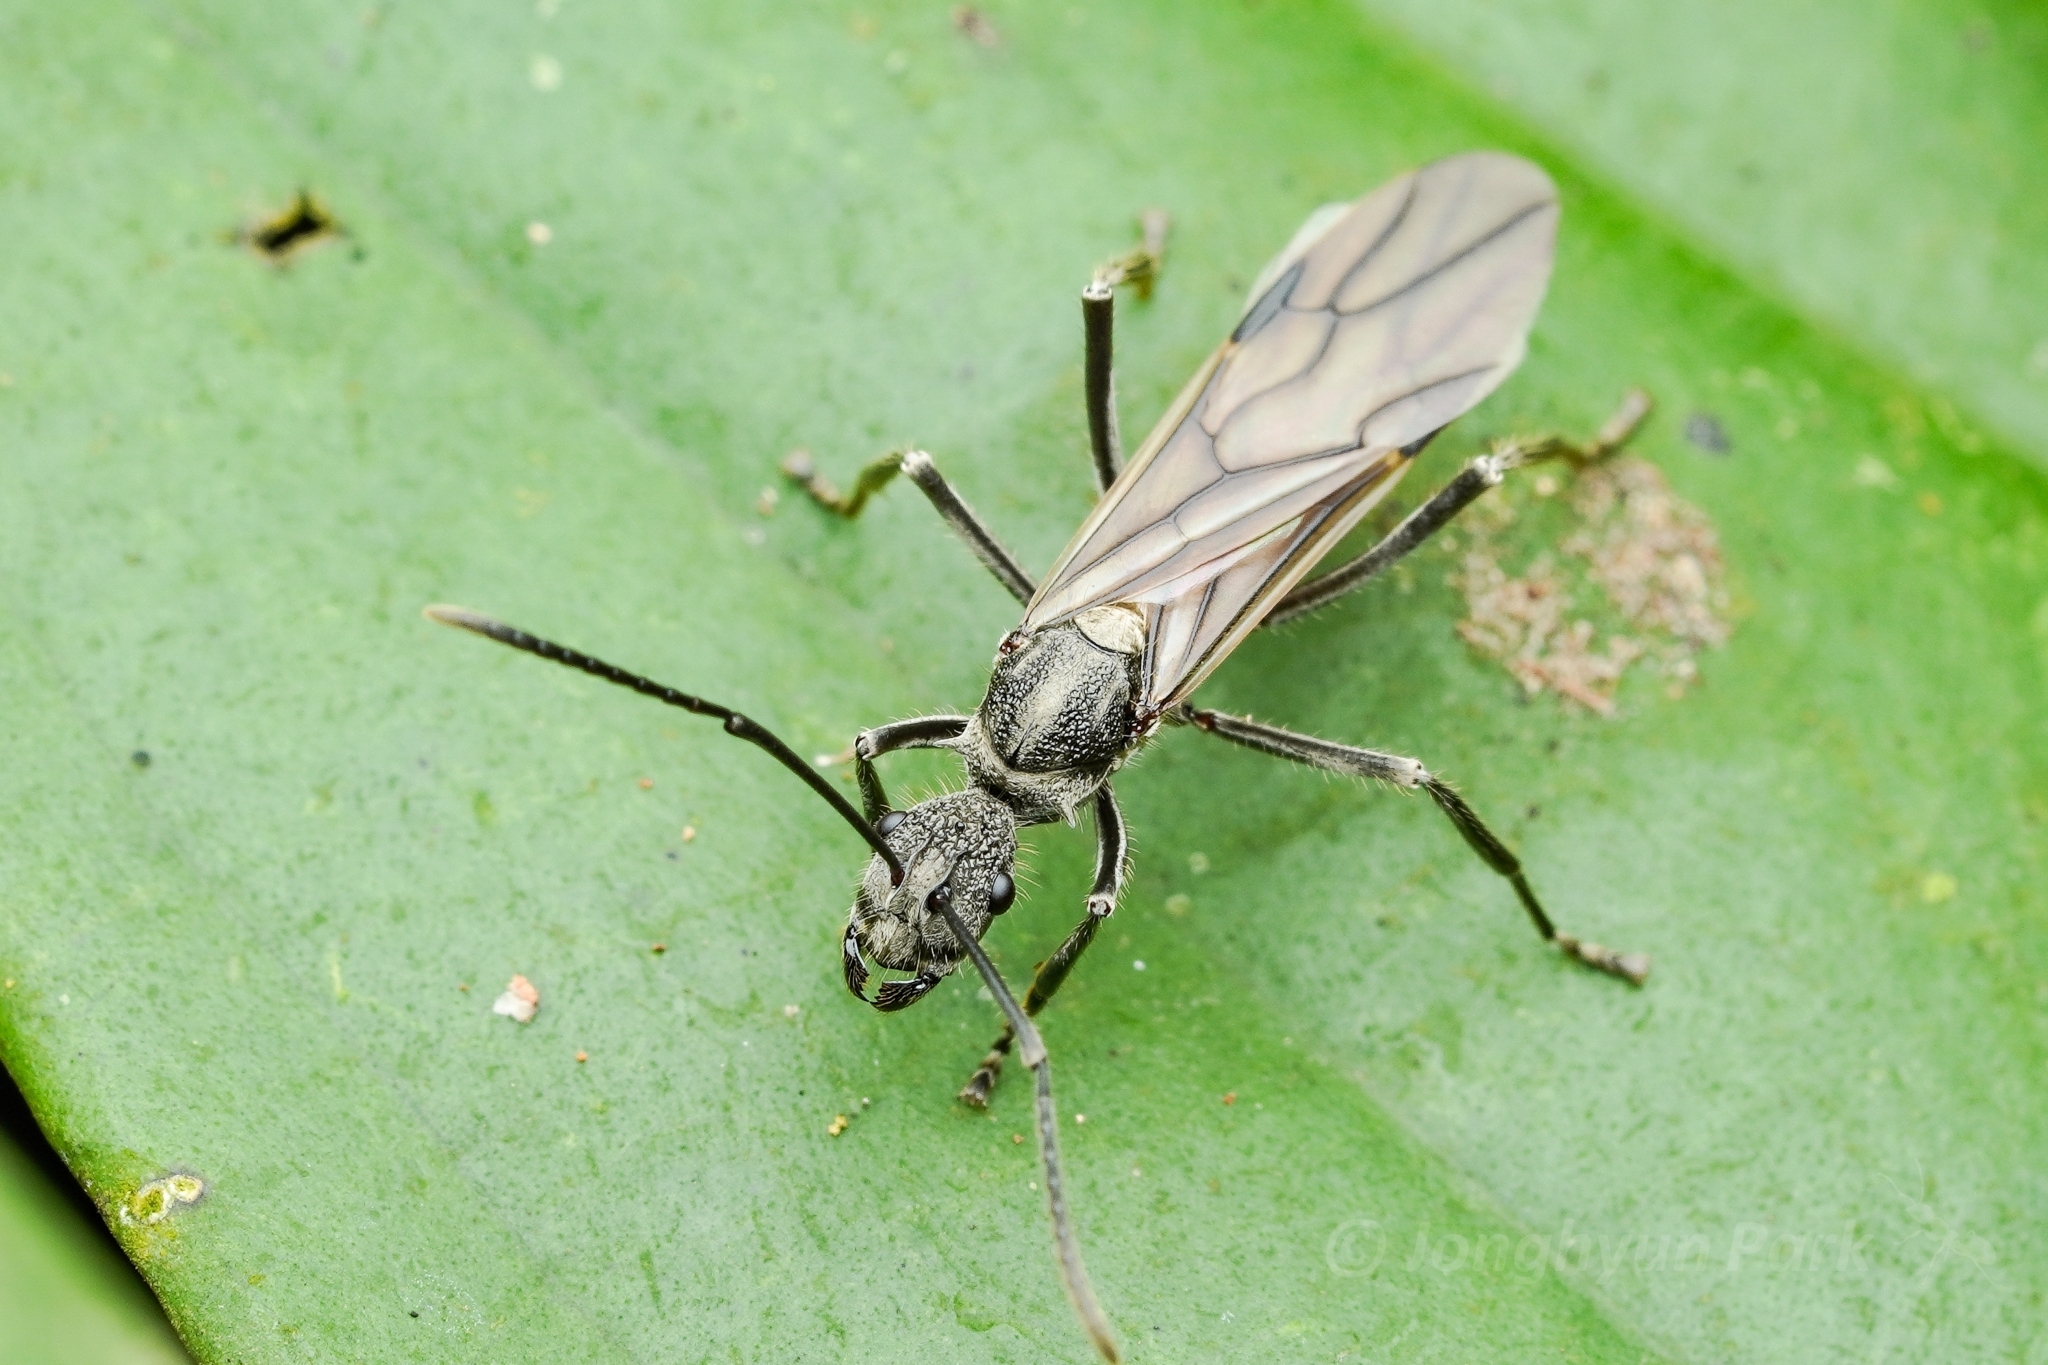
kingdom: Animalia
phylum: Arthropoda
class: Insecta
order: Hymenoptera
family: Formicidae
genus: Polyrhachis
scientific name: Polyrhachis calypso
